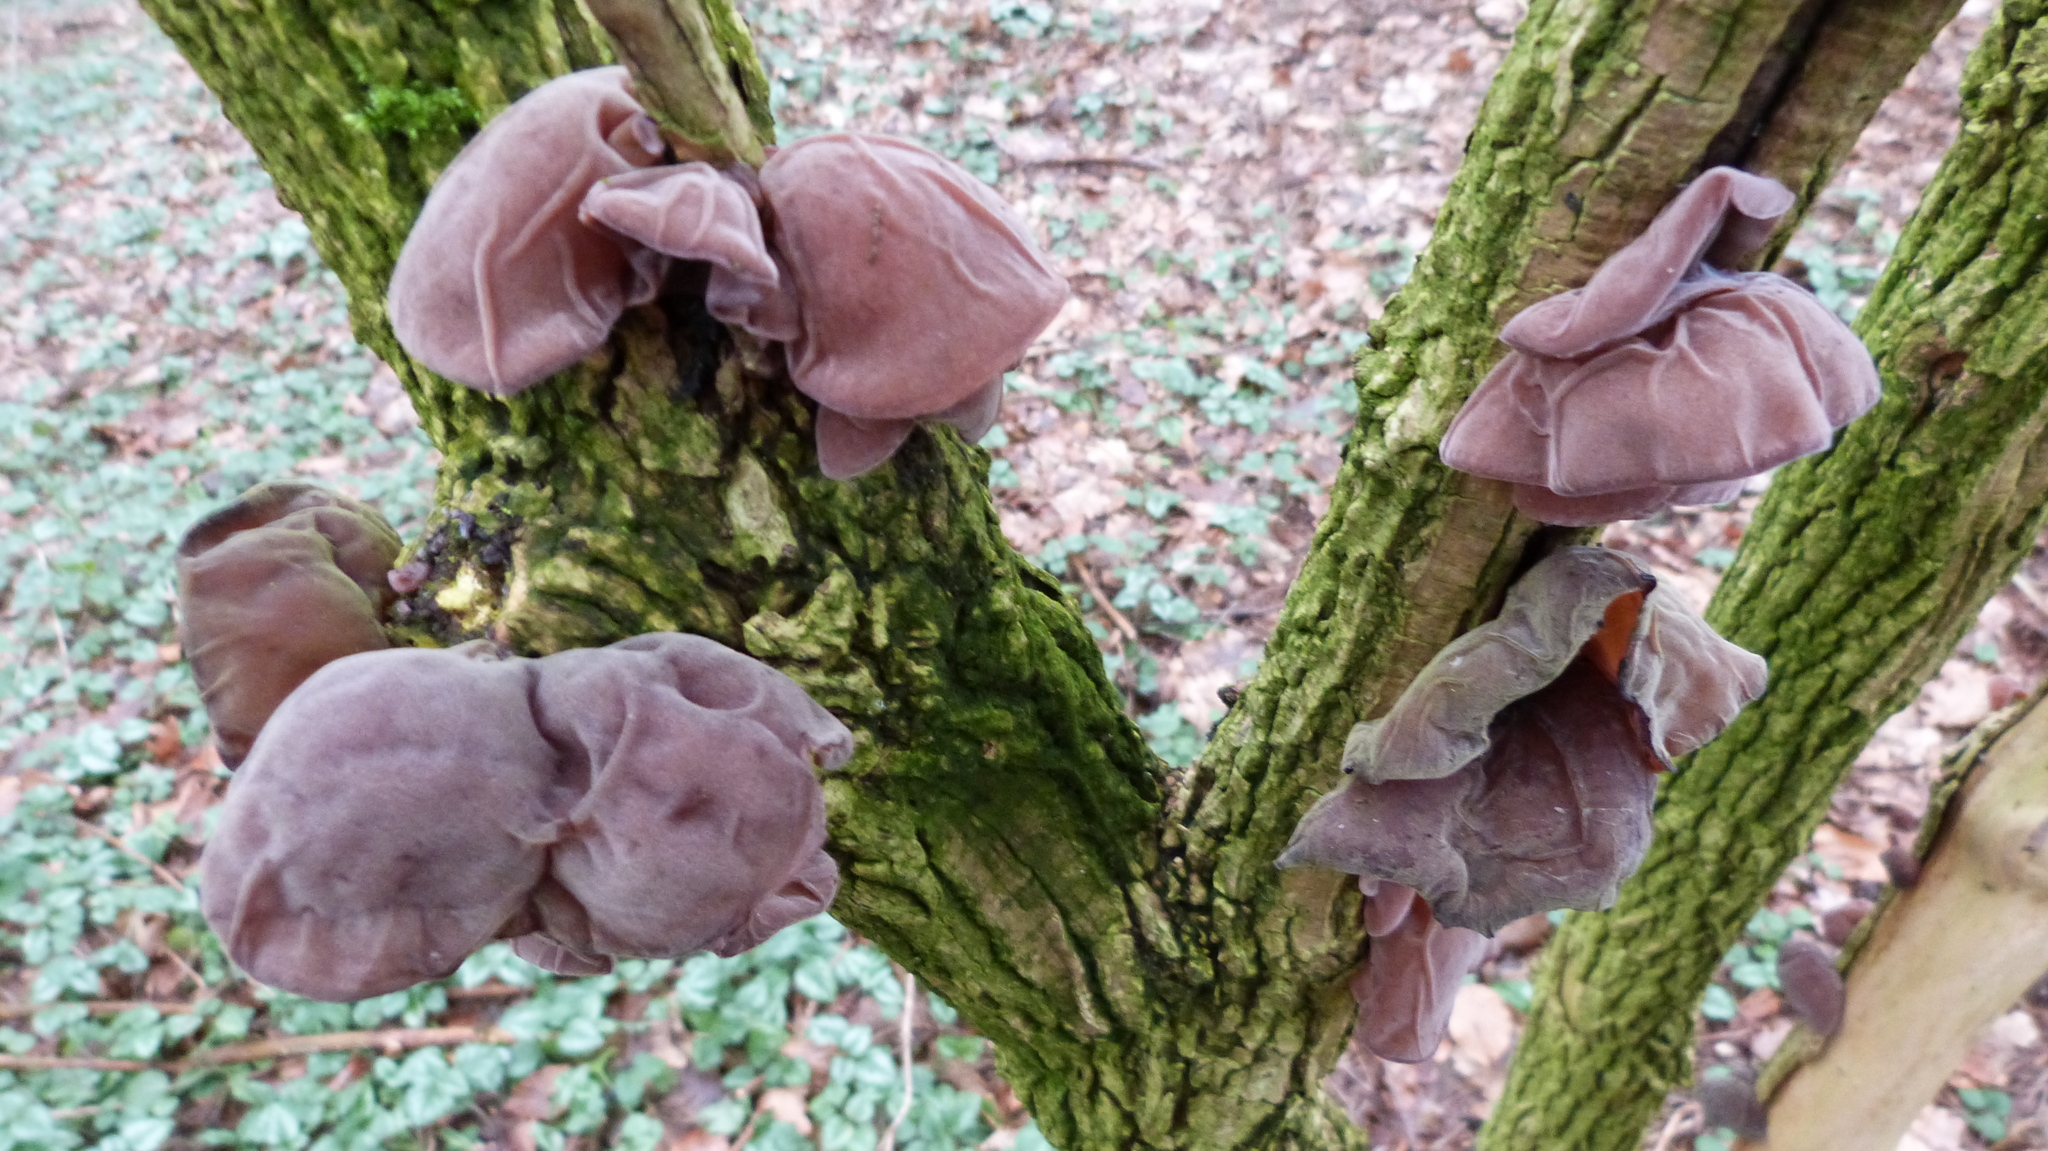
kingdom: Fungi
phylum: Basidiomycota
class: Agaricomycetes
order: Auriculariales
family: Auriculariaceae
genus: Auricularia
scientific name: Auricularia auricula-judae
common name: Jelly ear
